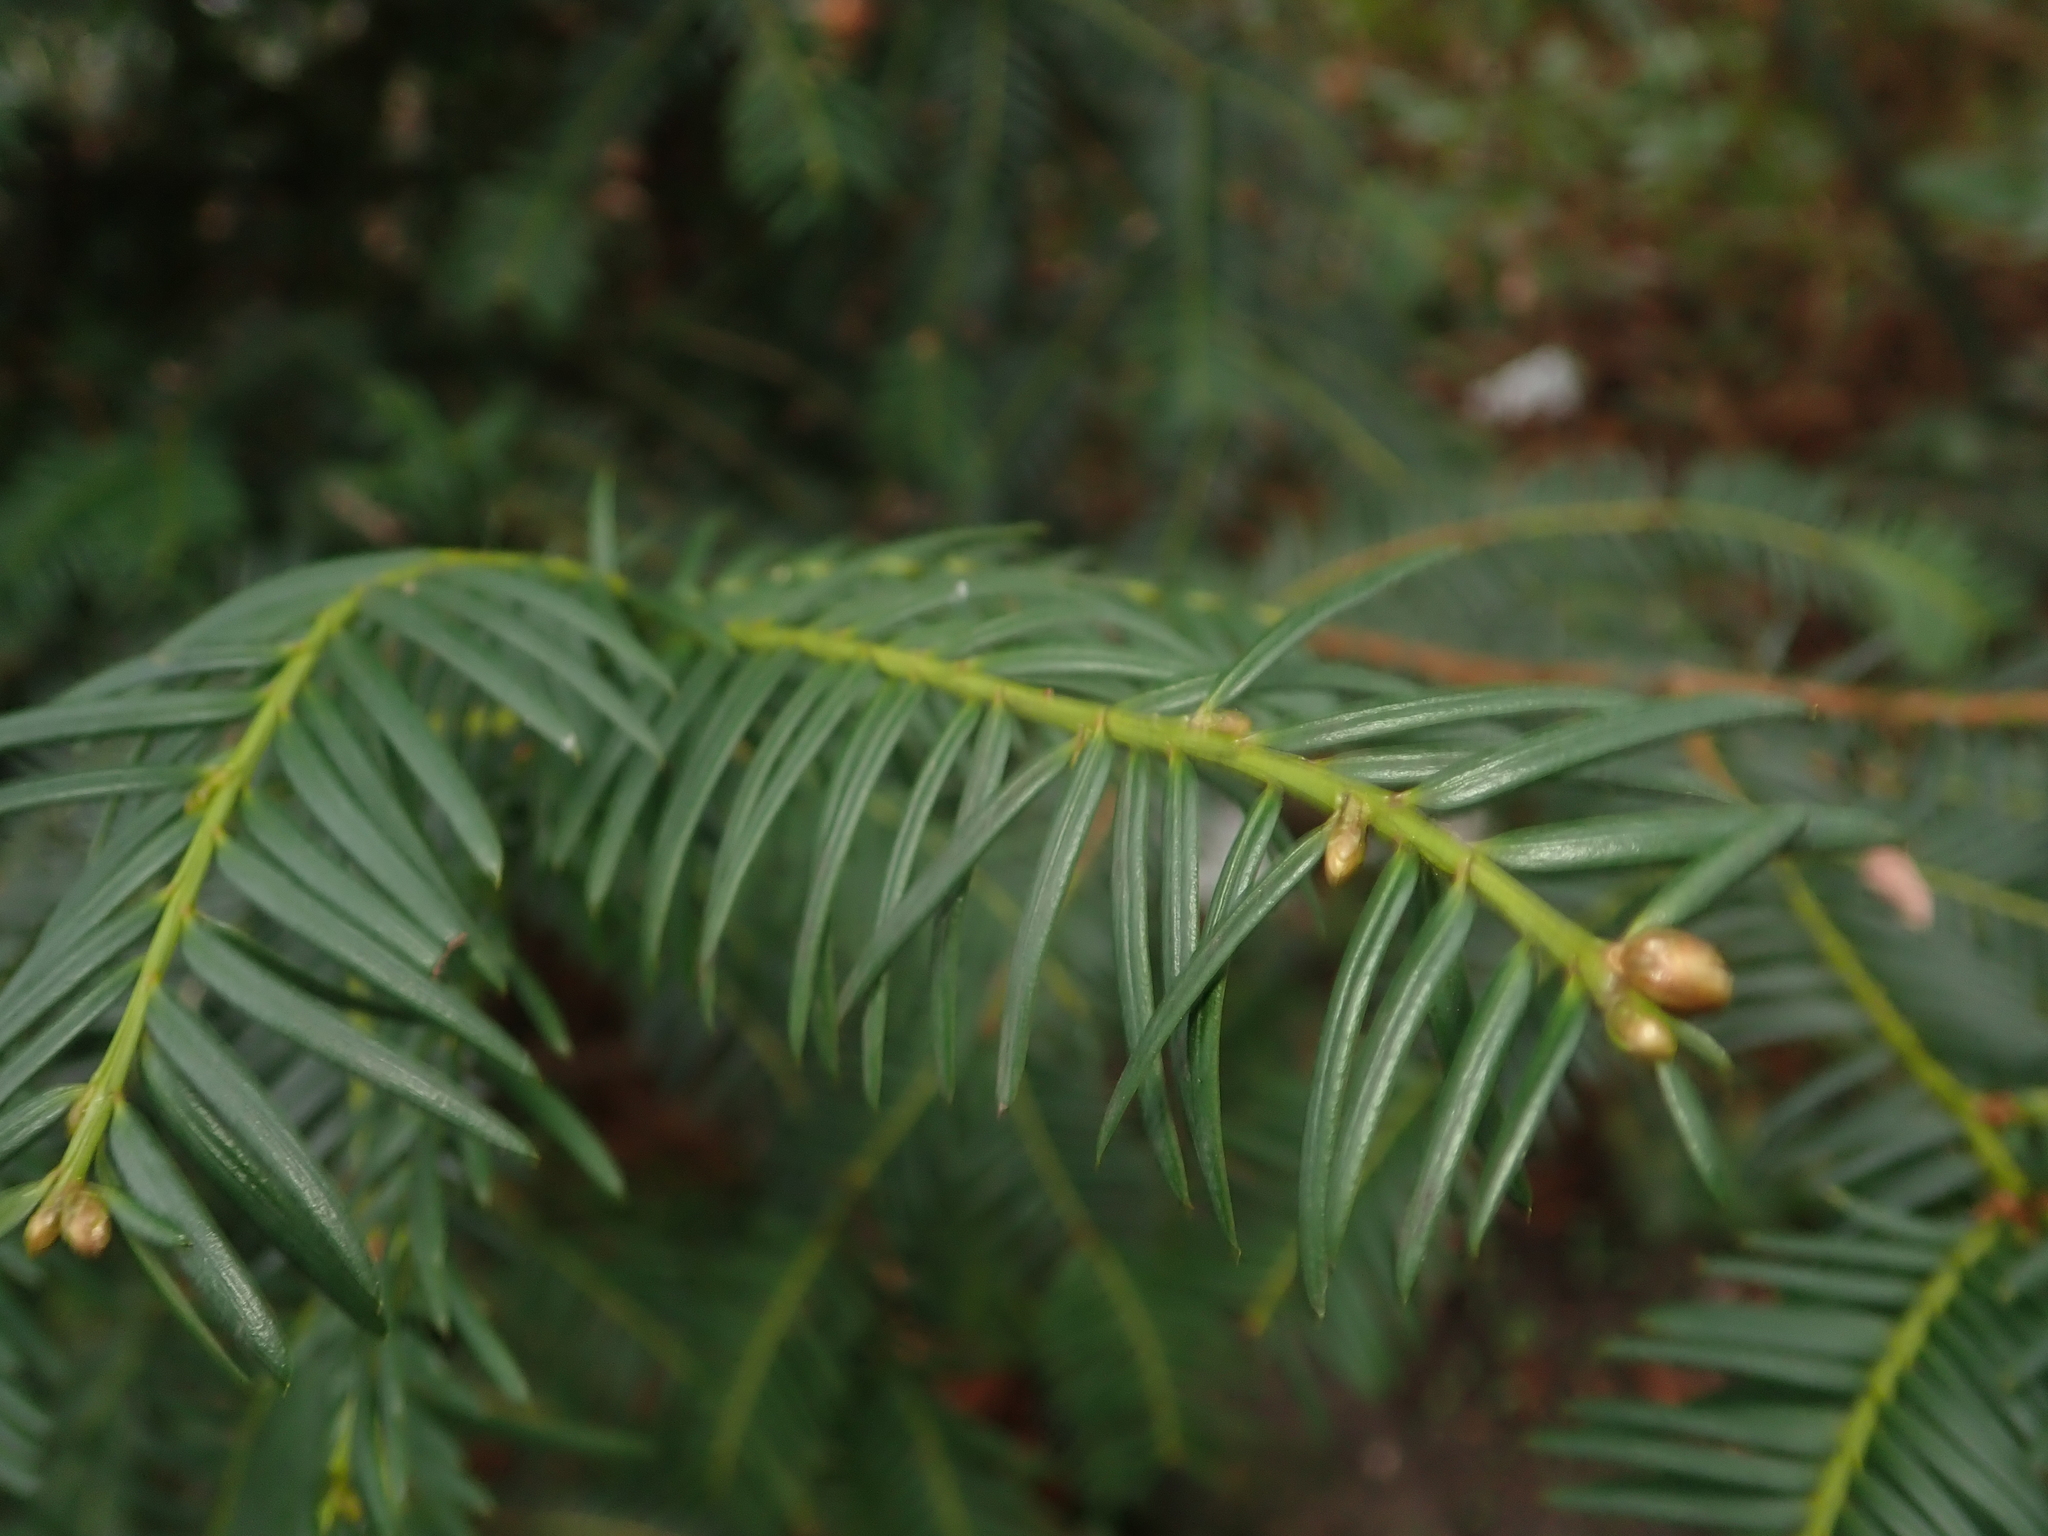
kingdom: Plantae
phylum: Tracheophyta
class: Pinopsida
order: Pinales
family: Taxaceae
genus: Taxus
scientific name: Taxus baccata
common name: Yew
